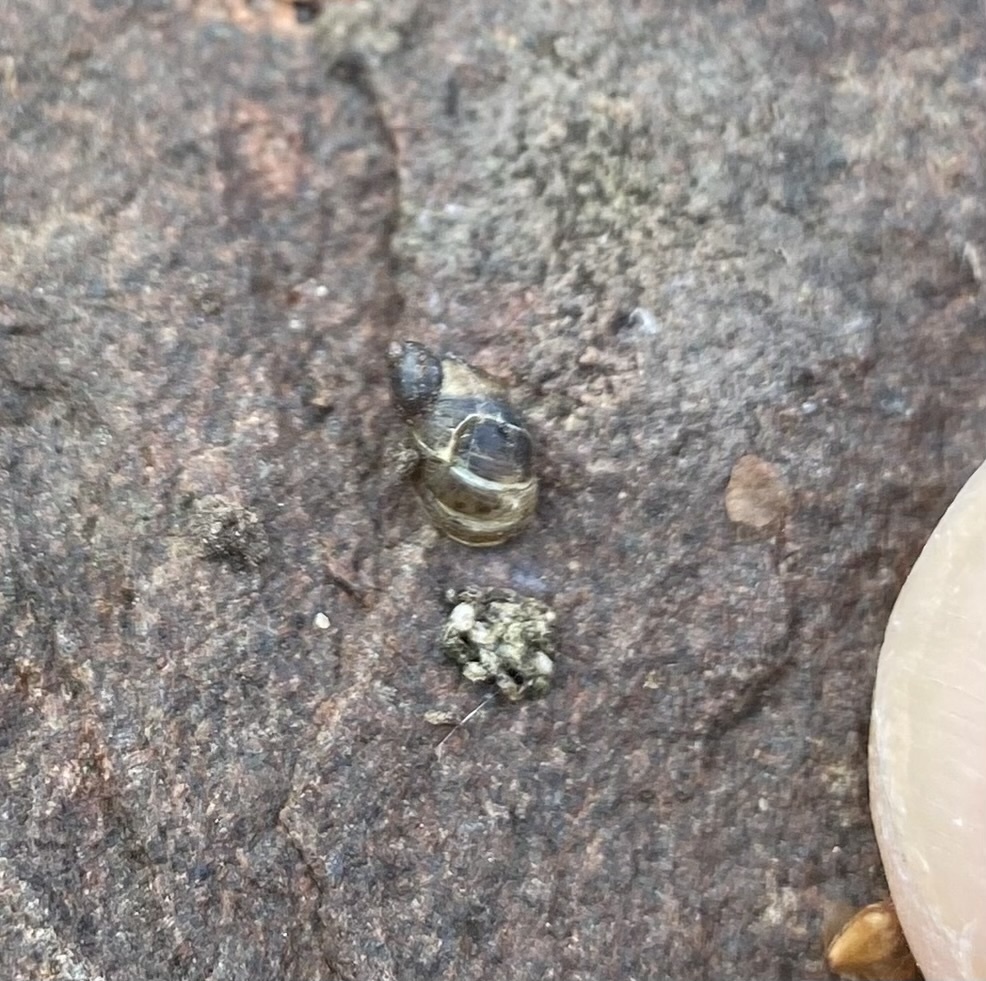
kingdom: Animalia
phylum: Mollusca
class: Gastropoda
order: Stylommatophora
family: Succineidae
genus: Succinella
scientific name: Succinella oblonga
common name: Small amber snail
